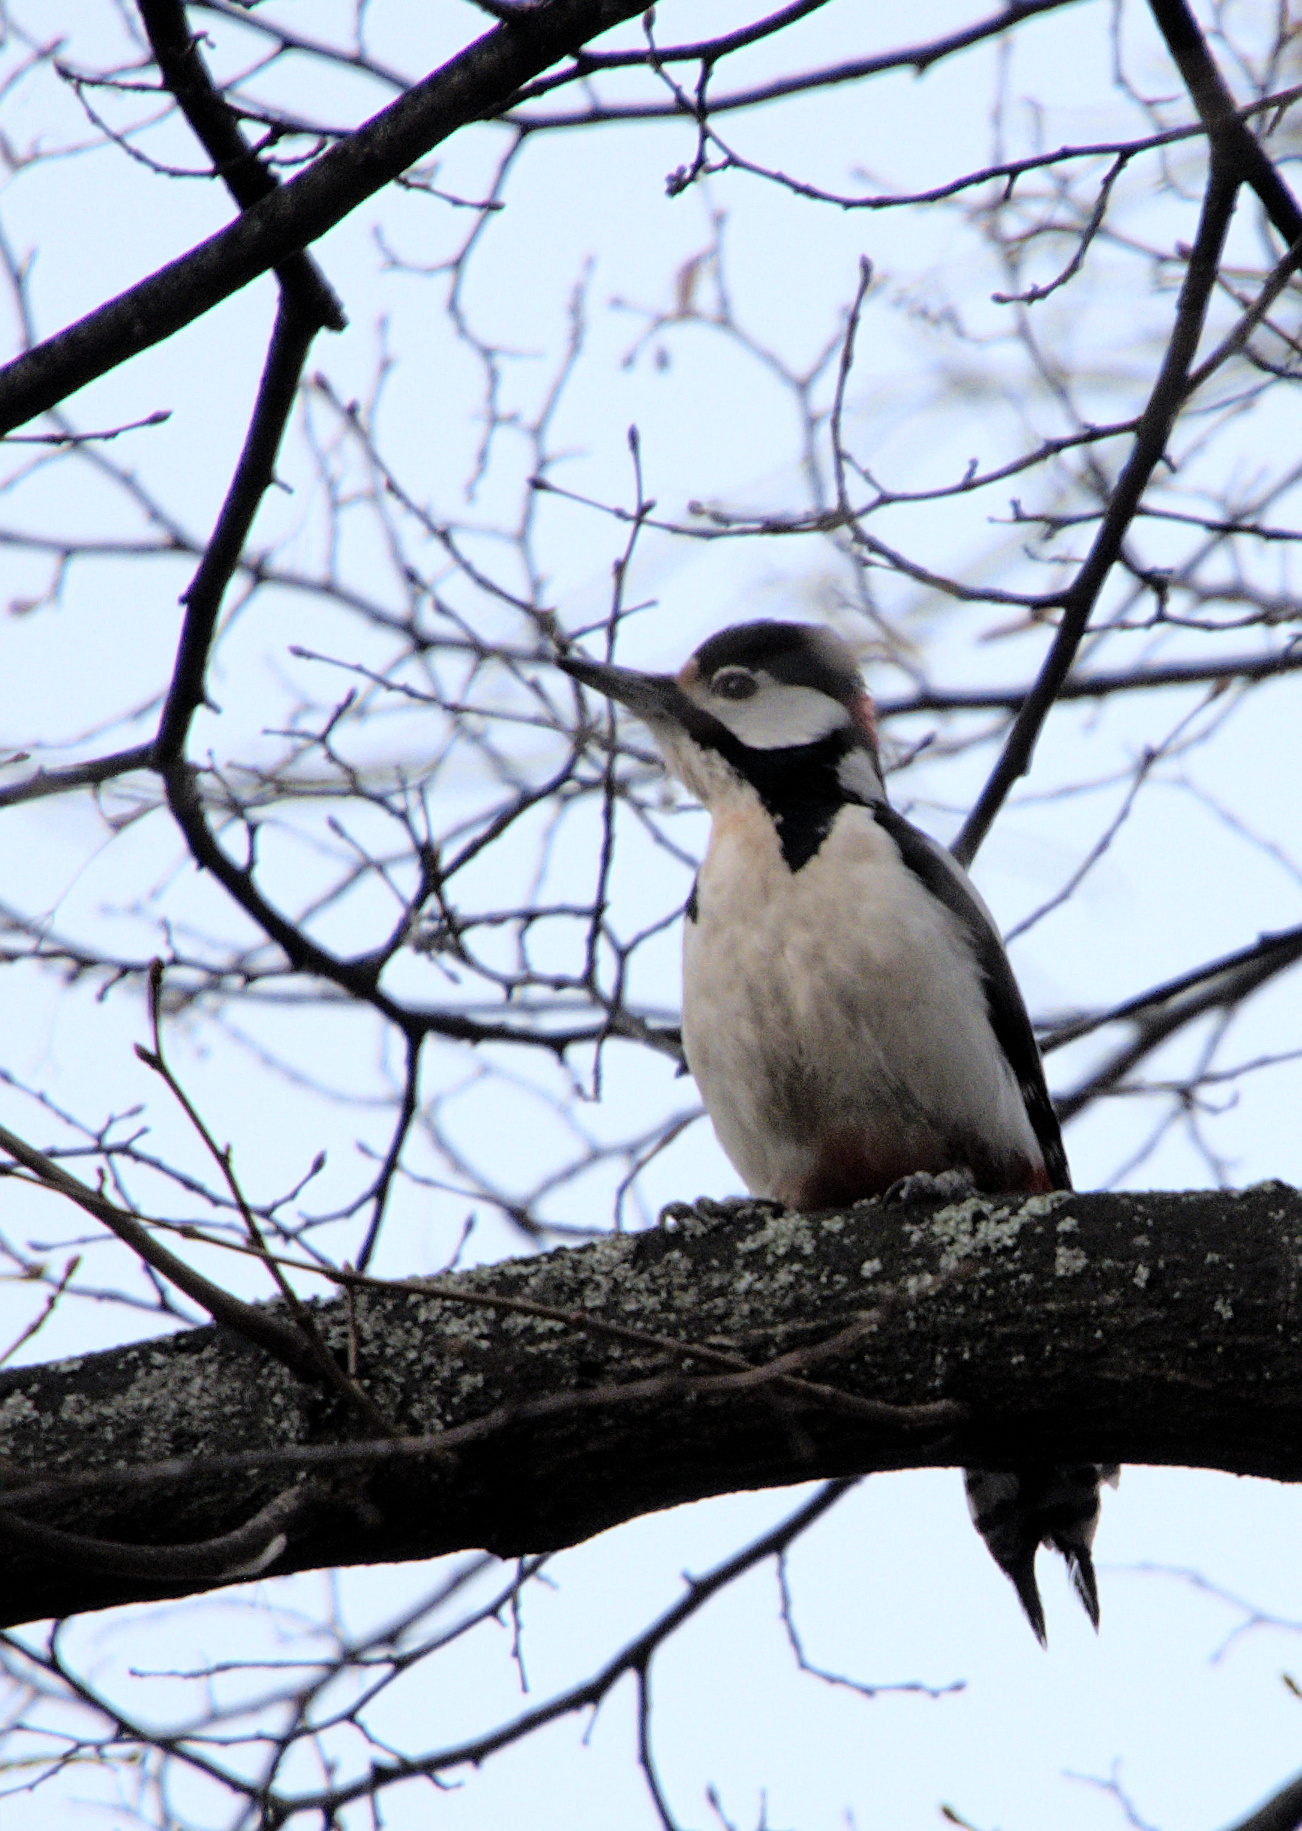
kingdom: Animalia
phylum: Chordata
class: Aves
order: Piciformes
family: Picidae
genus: Dendrocopos
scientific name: Dendrocopos major
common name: Great spotted woodpecker
